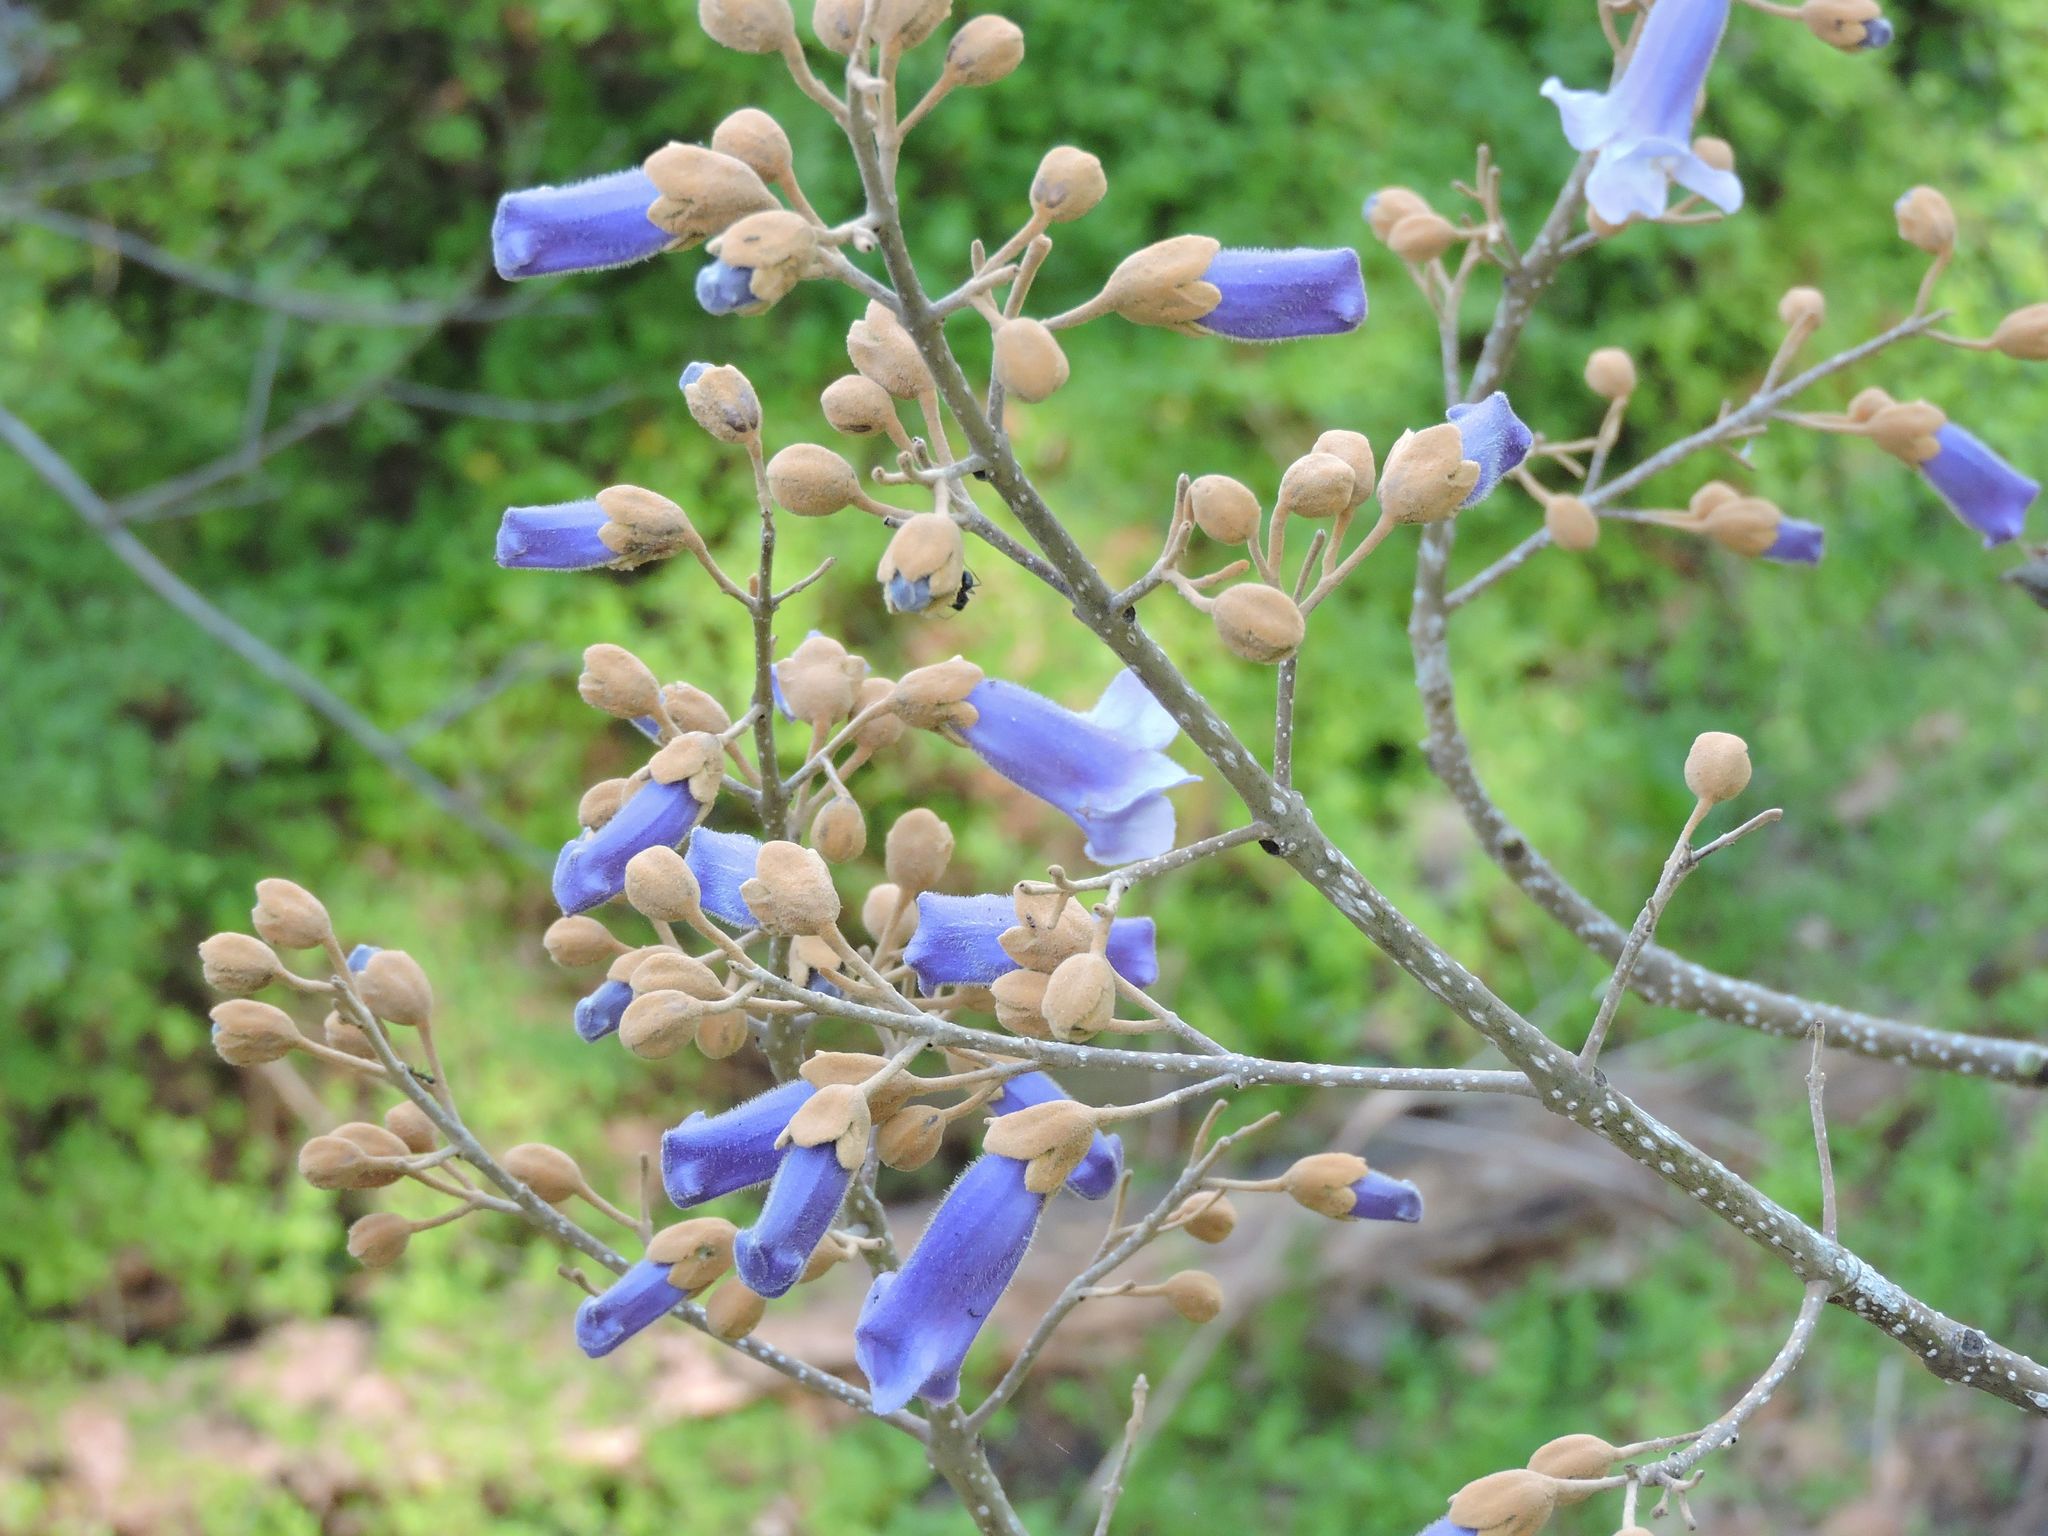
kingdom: Plantae
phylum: Tracheophyta
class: Magnoliopsida
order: Lamiales
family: Paulowniaceae
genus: Paulownia
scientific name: Paulownia tomentosa
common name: Foxglove-tree
